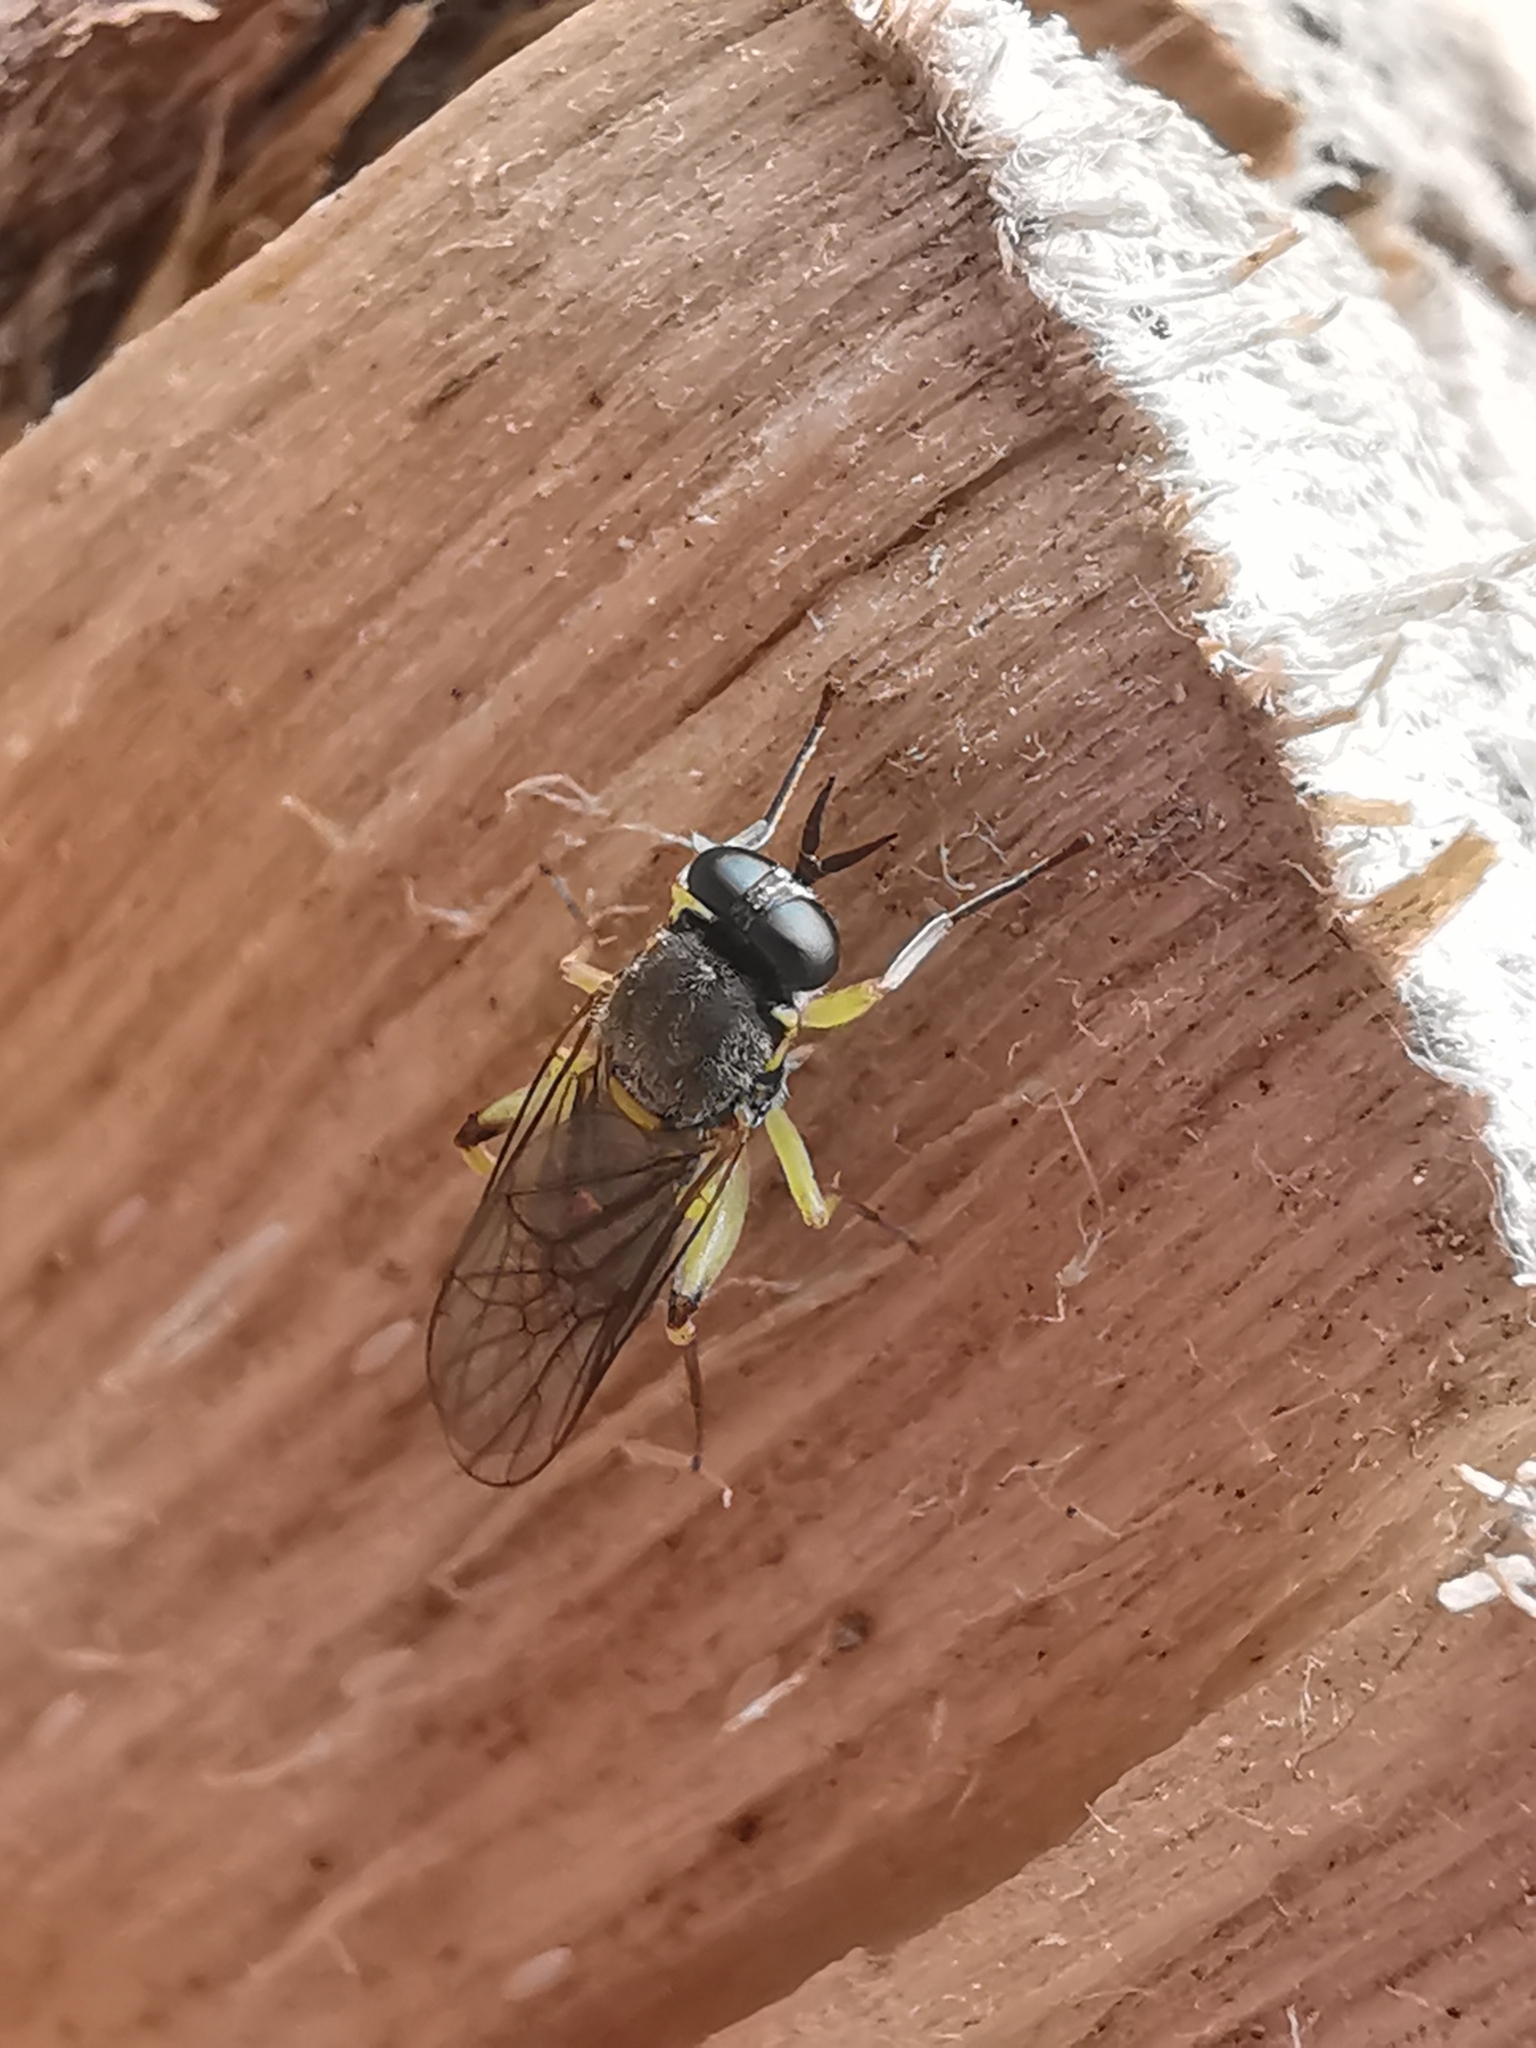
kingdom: Animalia
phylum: Arthropoda
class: Insecta
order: Diptera
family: Xylomyidae
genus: Solva
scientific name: Solva marginata
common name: Drab wood-soldierfly
